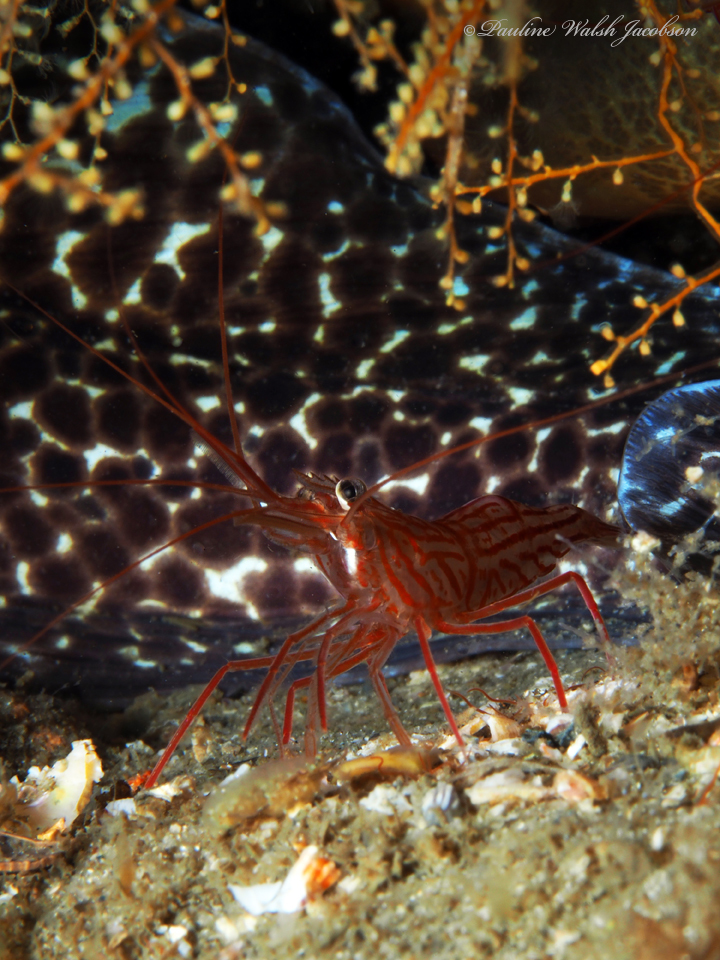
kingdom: Animalia
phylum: Arthropoda
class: Malacostraca
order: Decapoda
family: Lysmatidae
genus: Lysmata
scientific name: Lysmata wurdemanni
